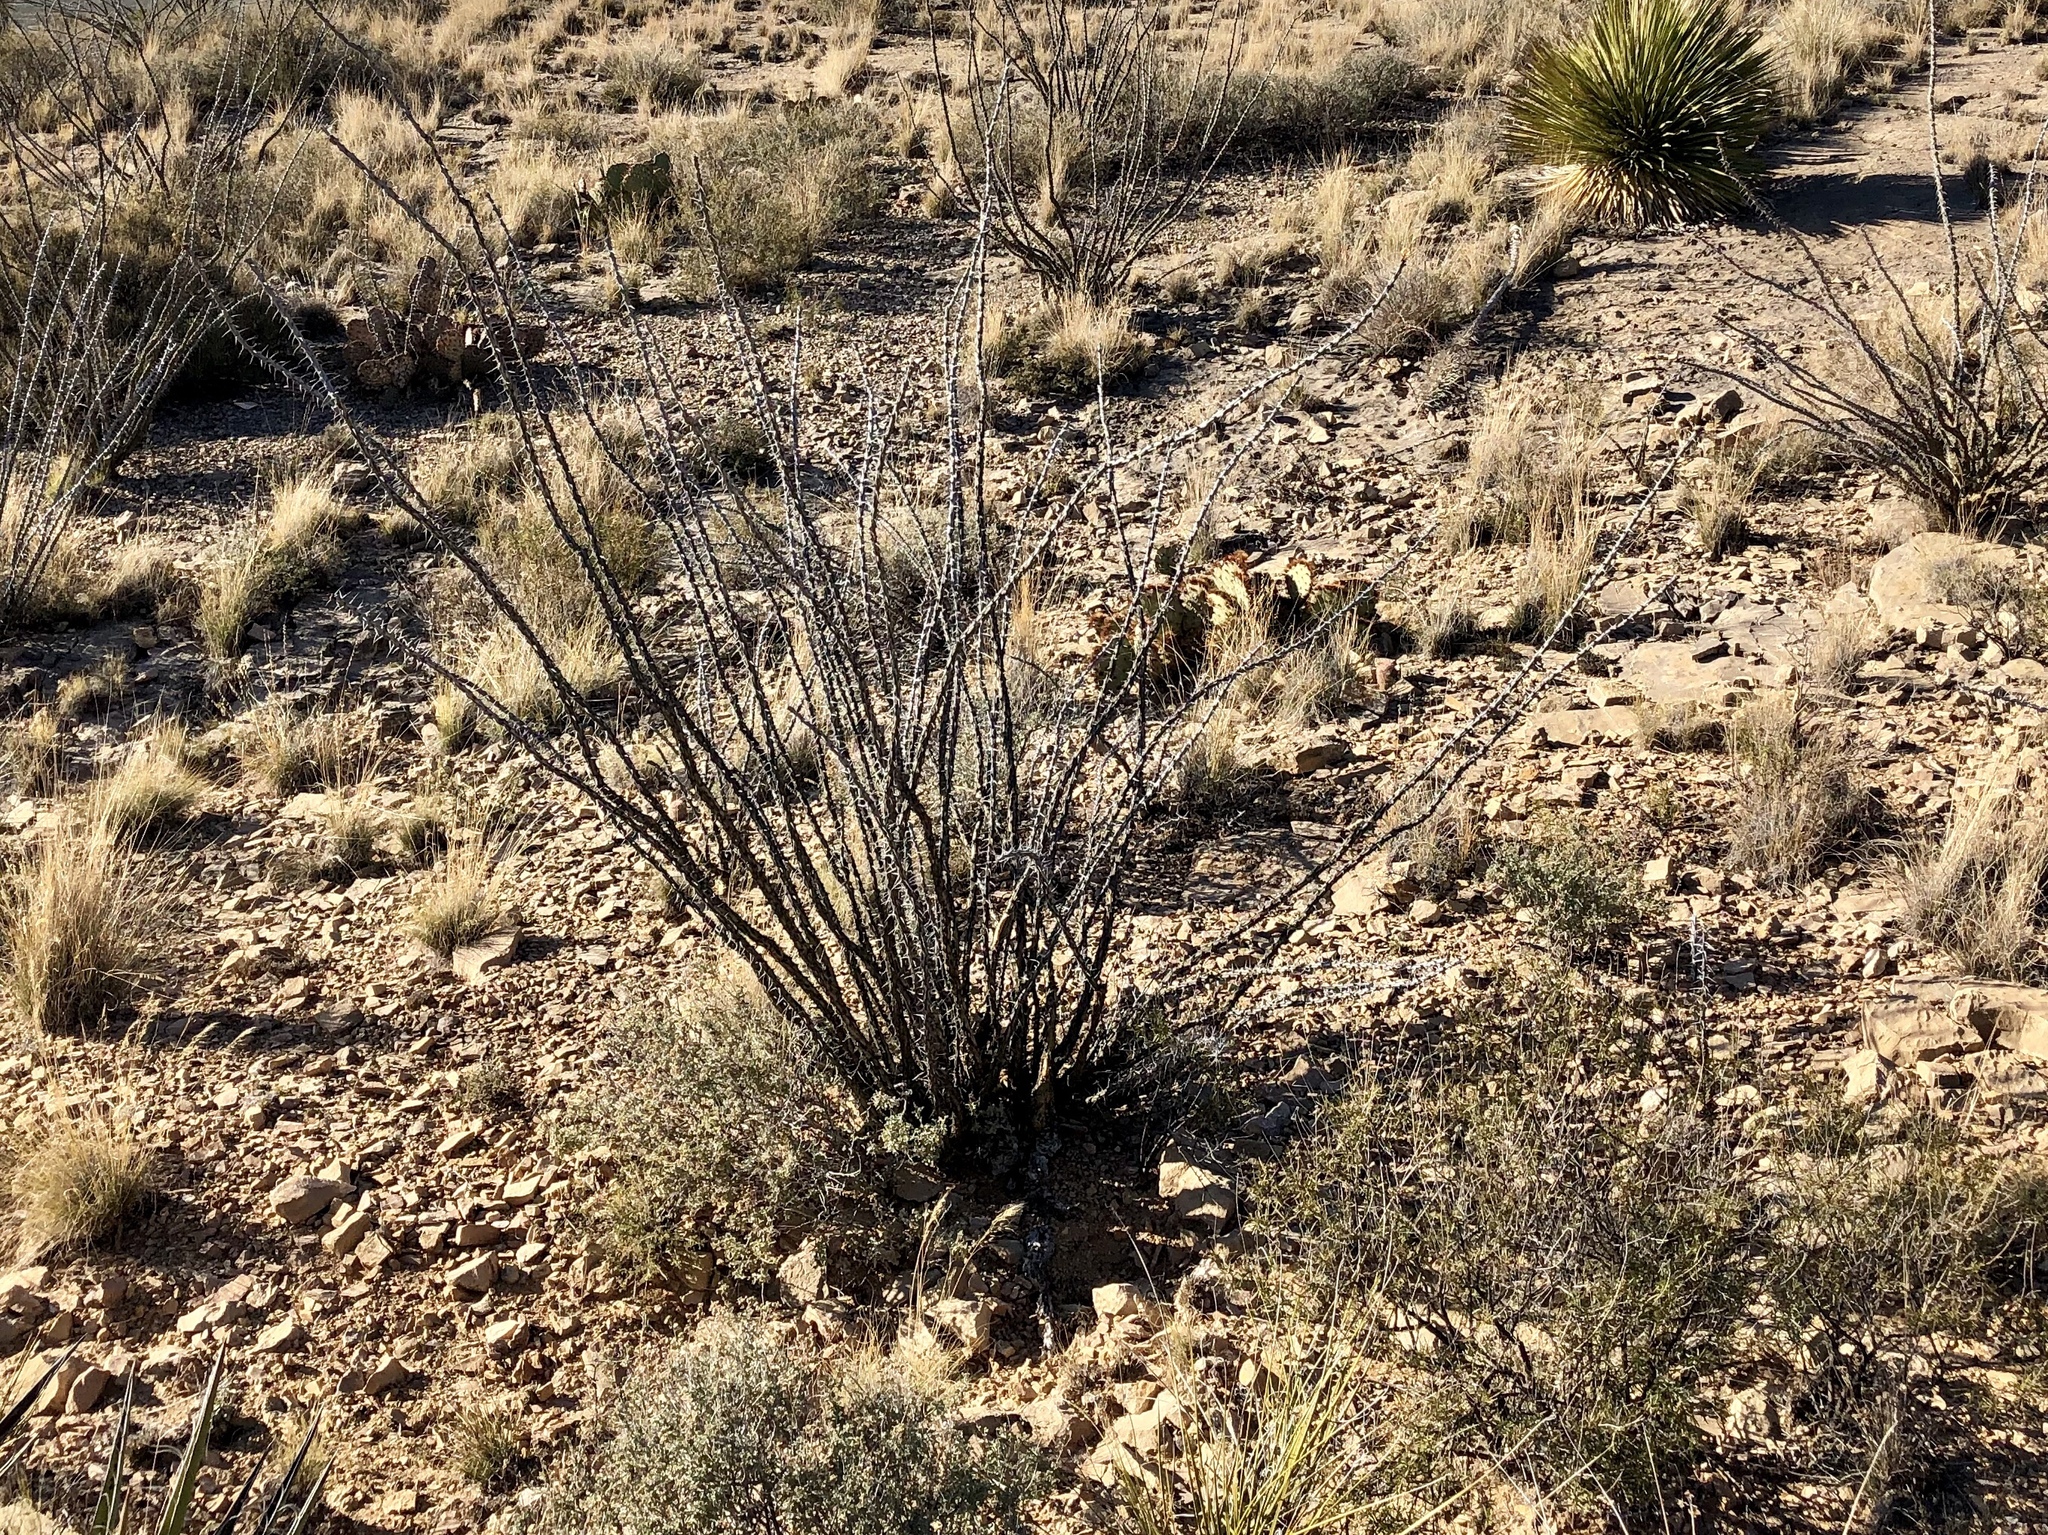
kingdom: Plantae
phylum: Tracheophyta
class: Magnoliopsida
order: Ericales
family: Fouquieriaceae
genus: Fouquieria
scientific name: Fouquieria splendens
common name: Vine-cactus
